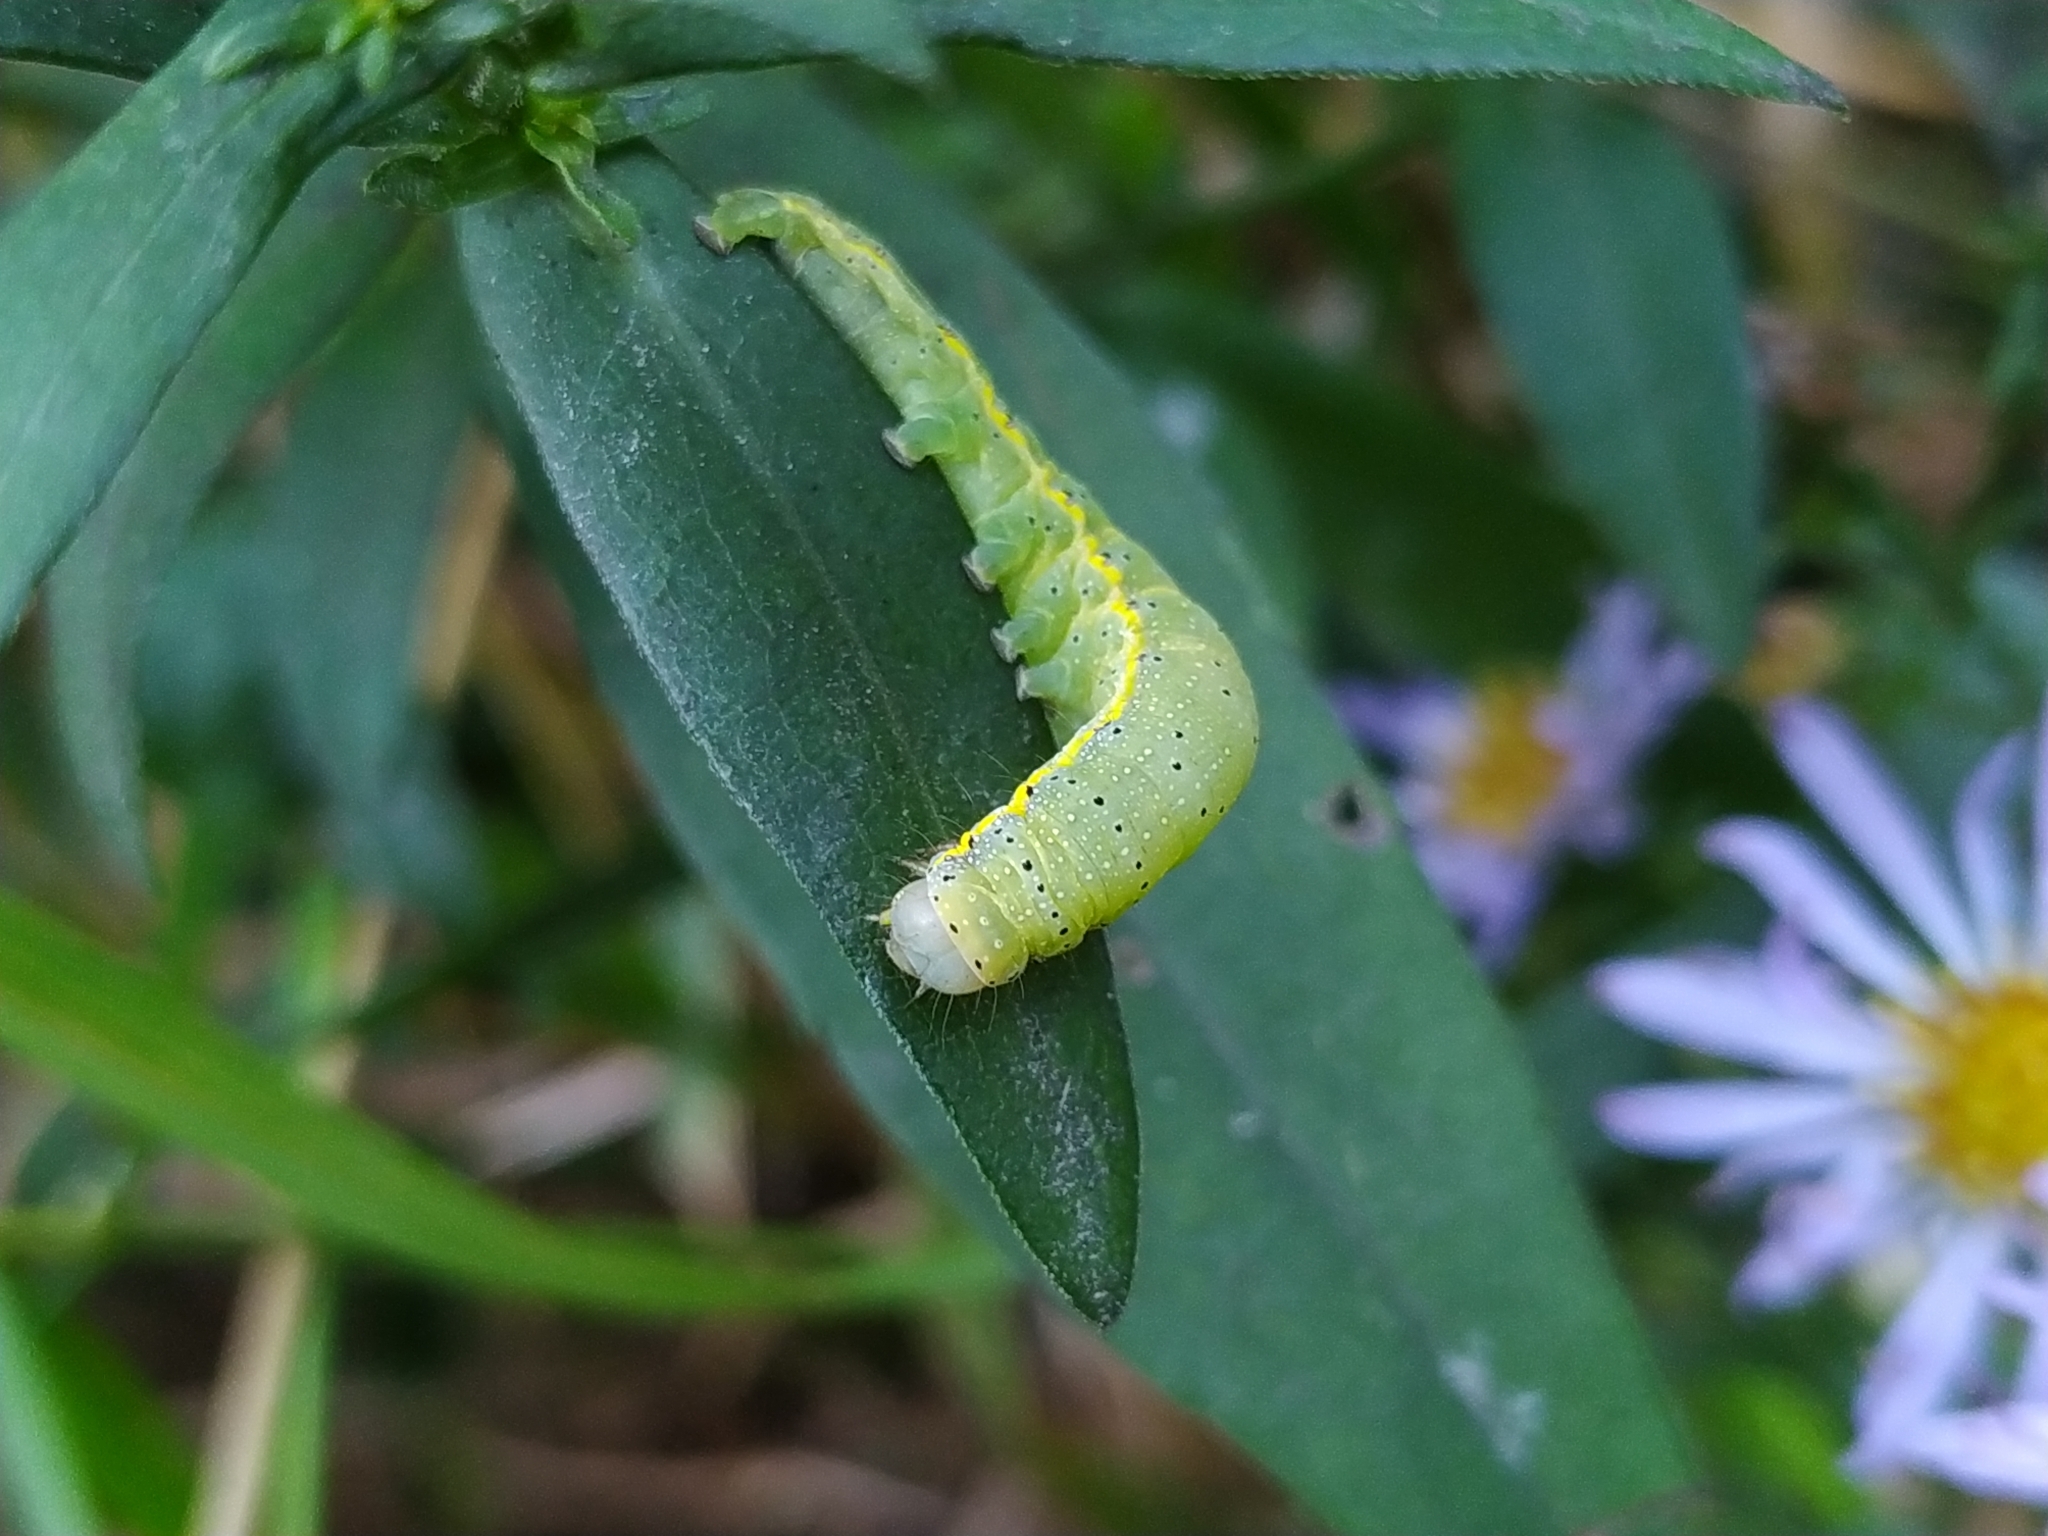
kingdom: Animalia
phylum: Arthropoda
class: Insecta
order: Lepidoptera
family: Noctuidae
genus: Lacanobia
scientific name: Lacanobia oleracea
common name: Bright-line brown-eye
